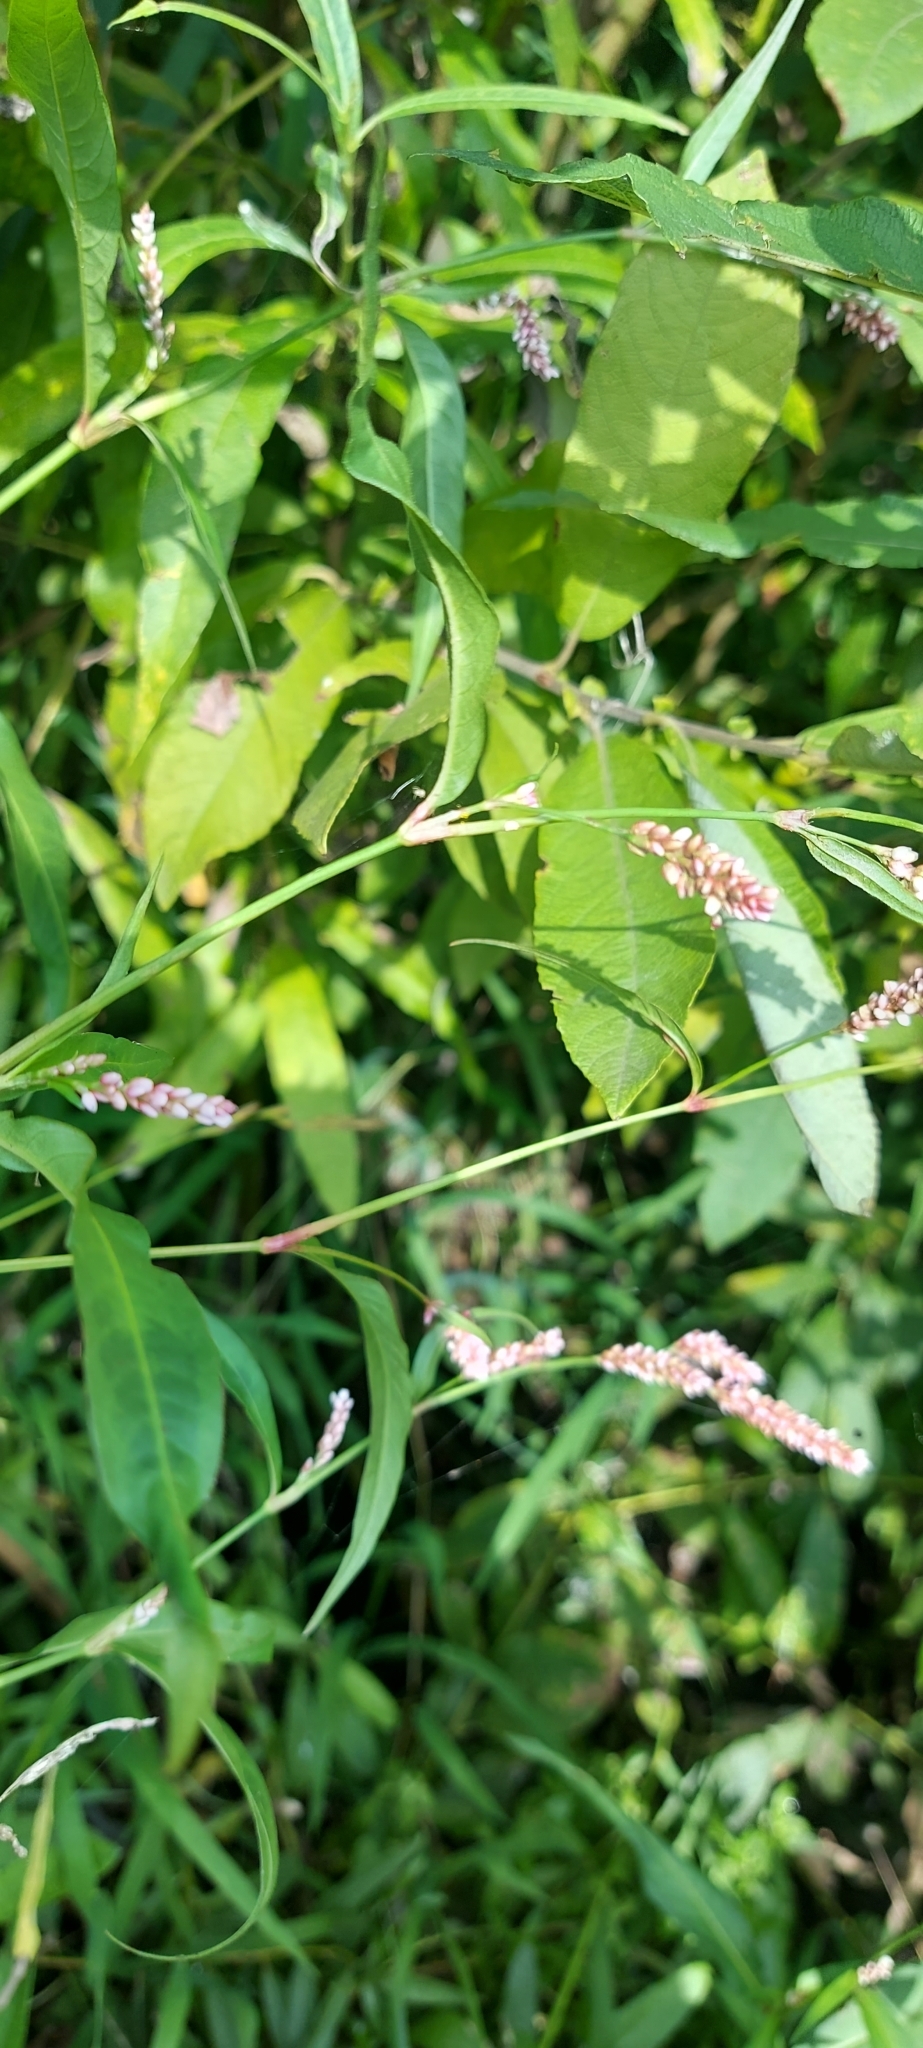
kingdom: Plantae
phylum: Tracheophyta
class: Magnoliopsida
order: Caryophyllales
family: Polygonaceae
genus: Persicaria
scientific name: Persicaria maculosa
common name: Redshank
